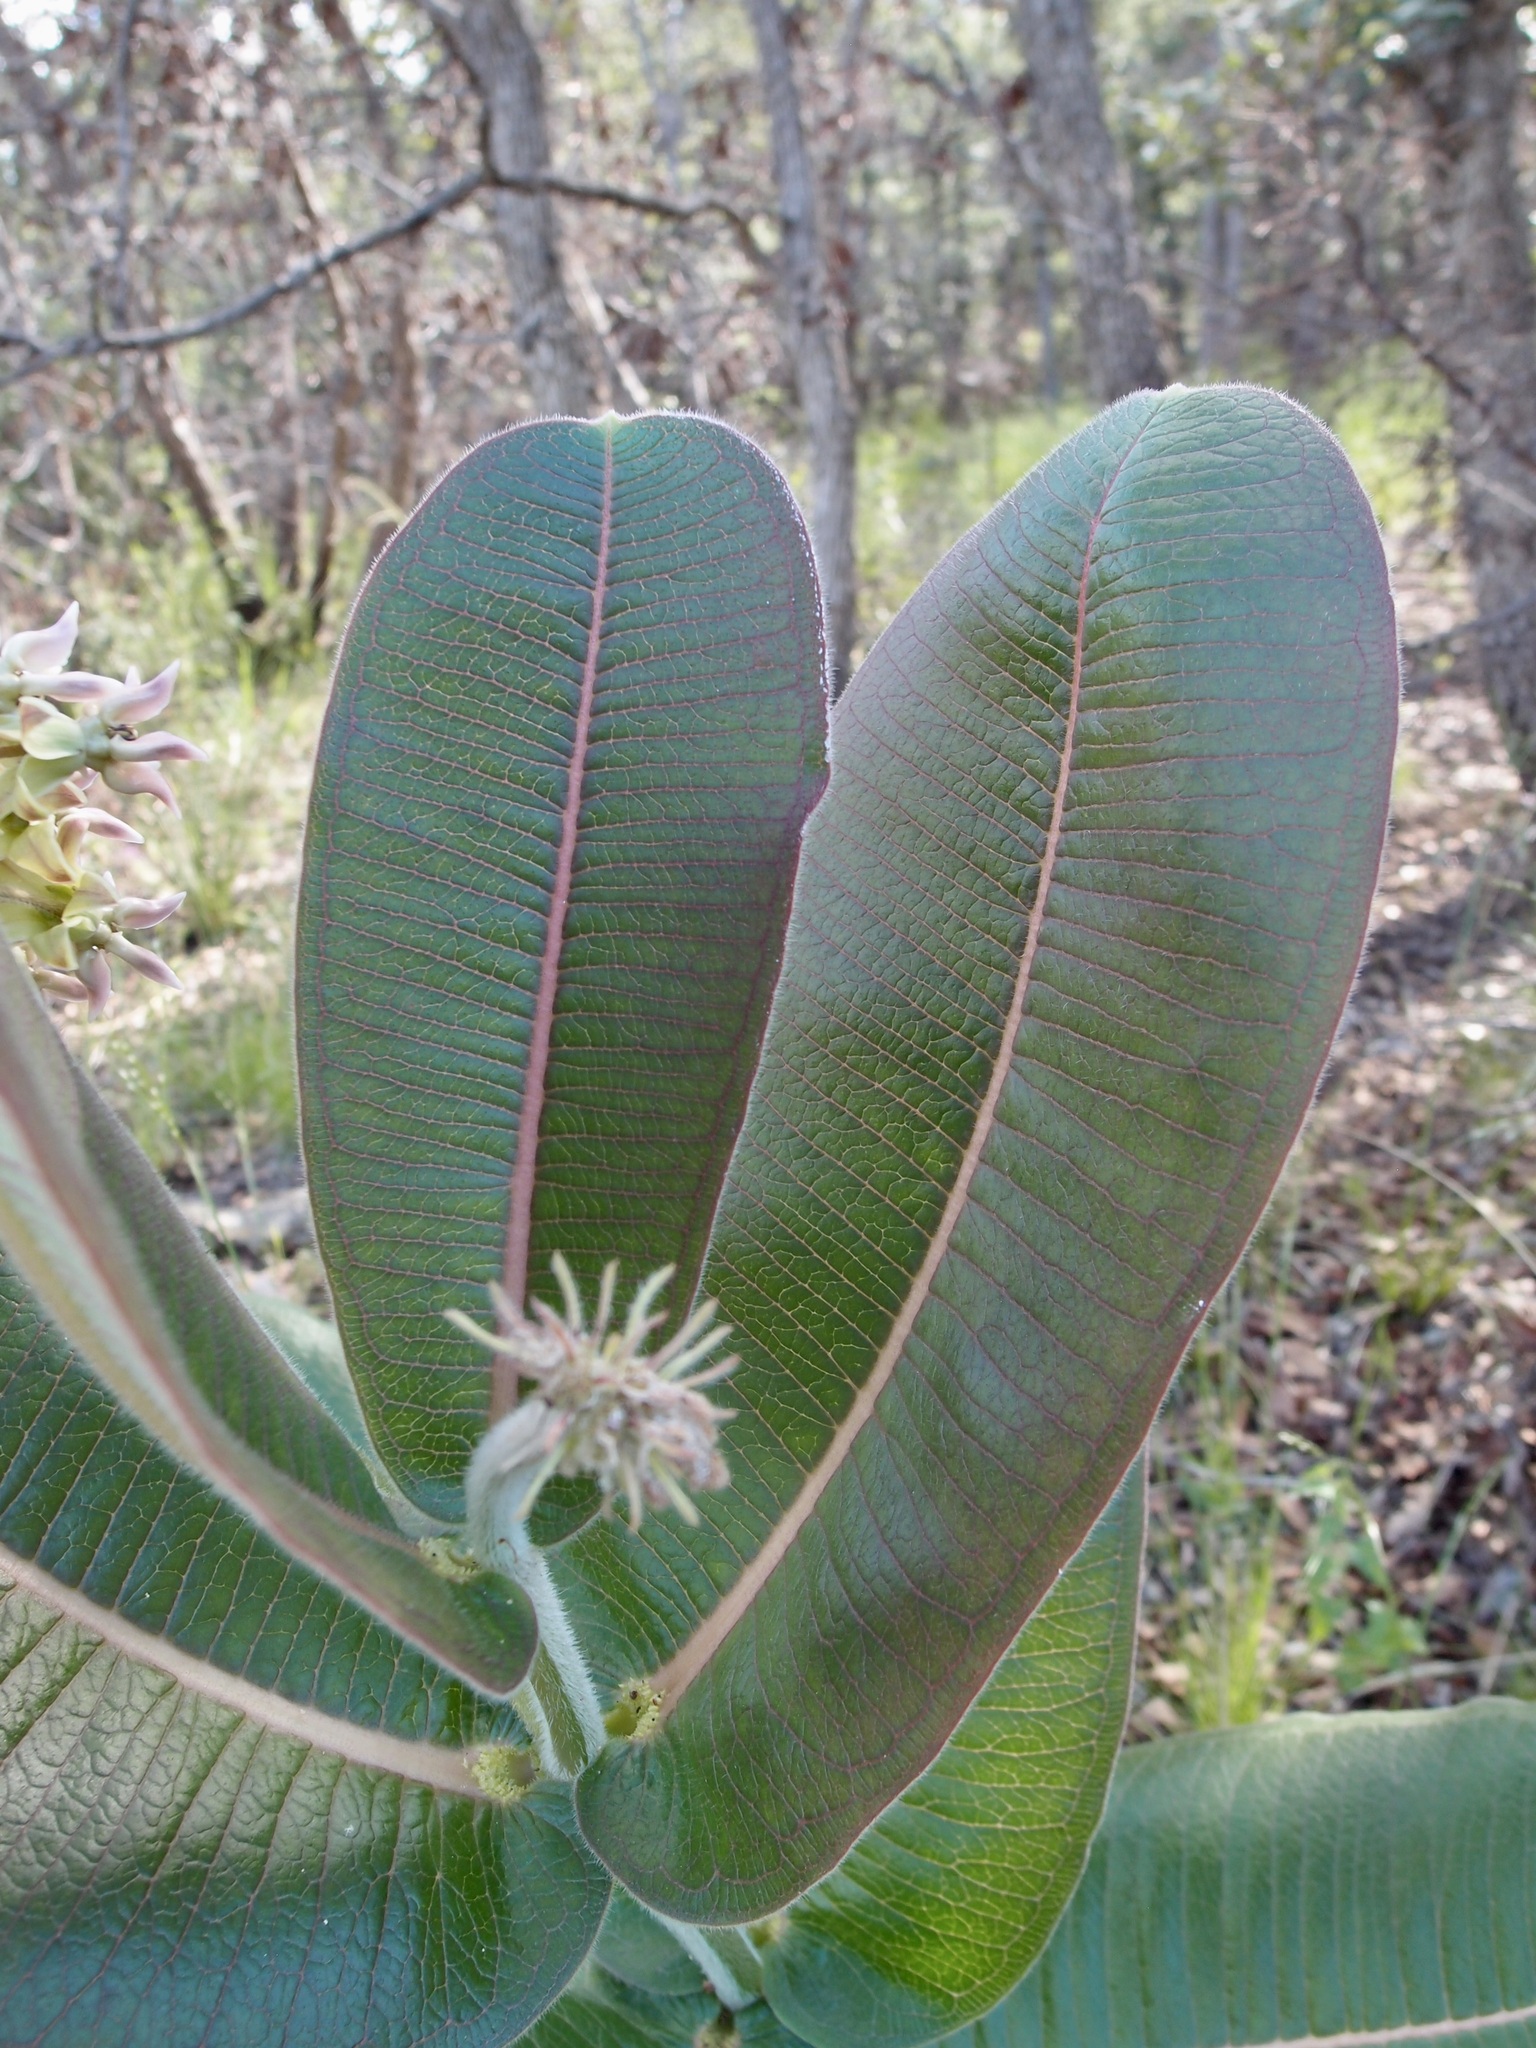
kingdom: Plantae
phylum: Tracheophyta
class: Magnoliopsida
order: Gentianales
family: Apocynaceae
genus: Asclepias
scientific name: Asclepias lemmonii
